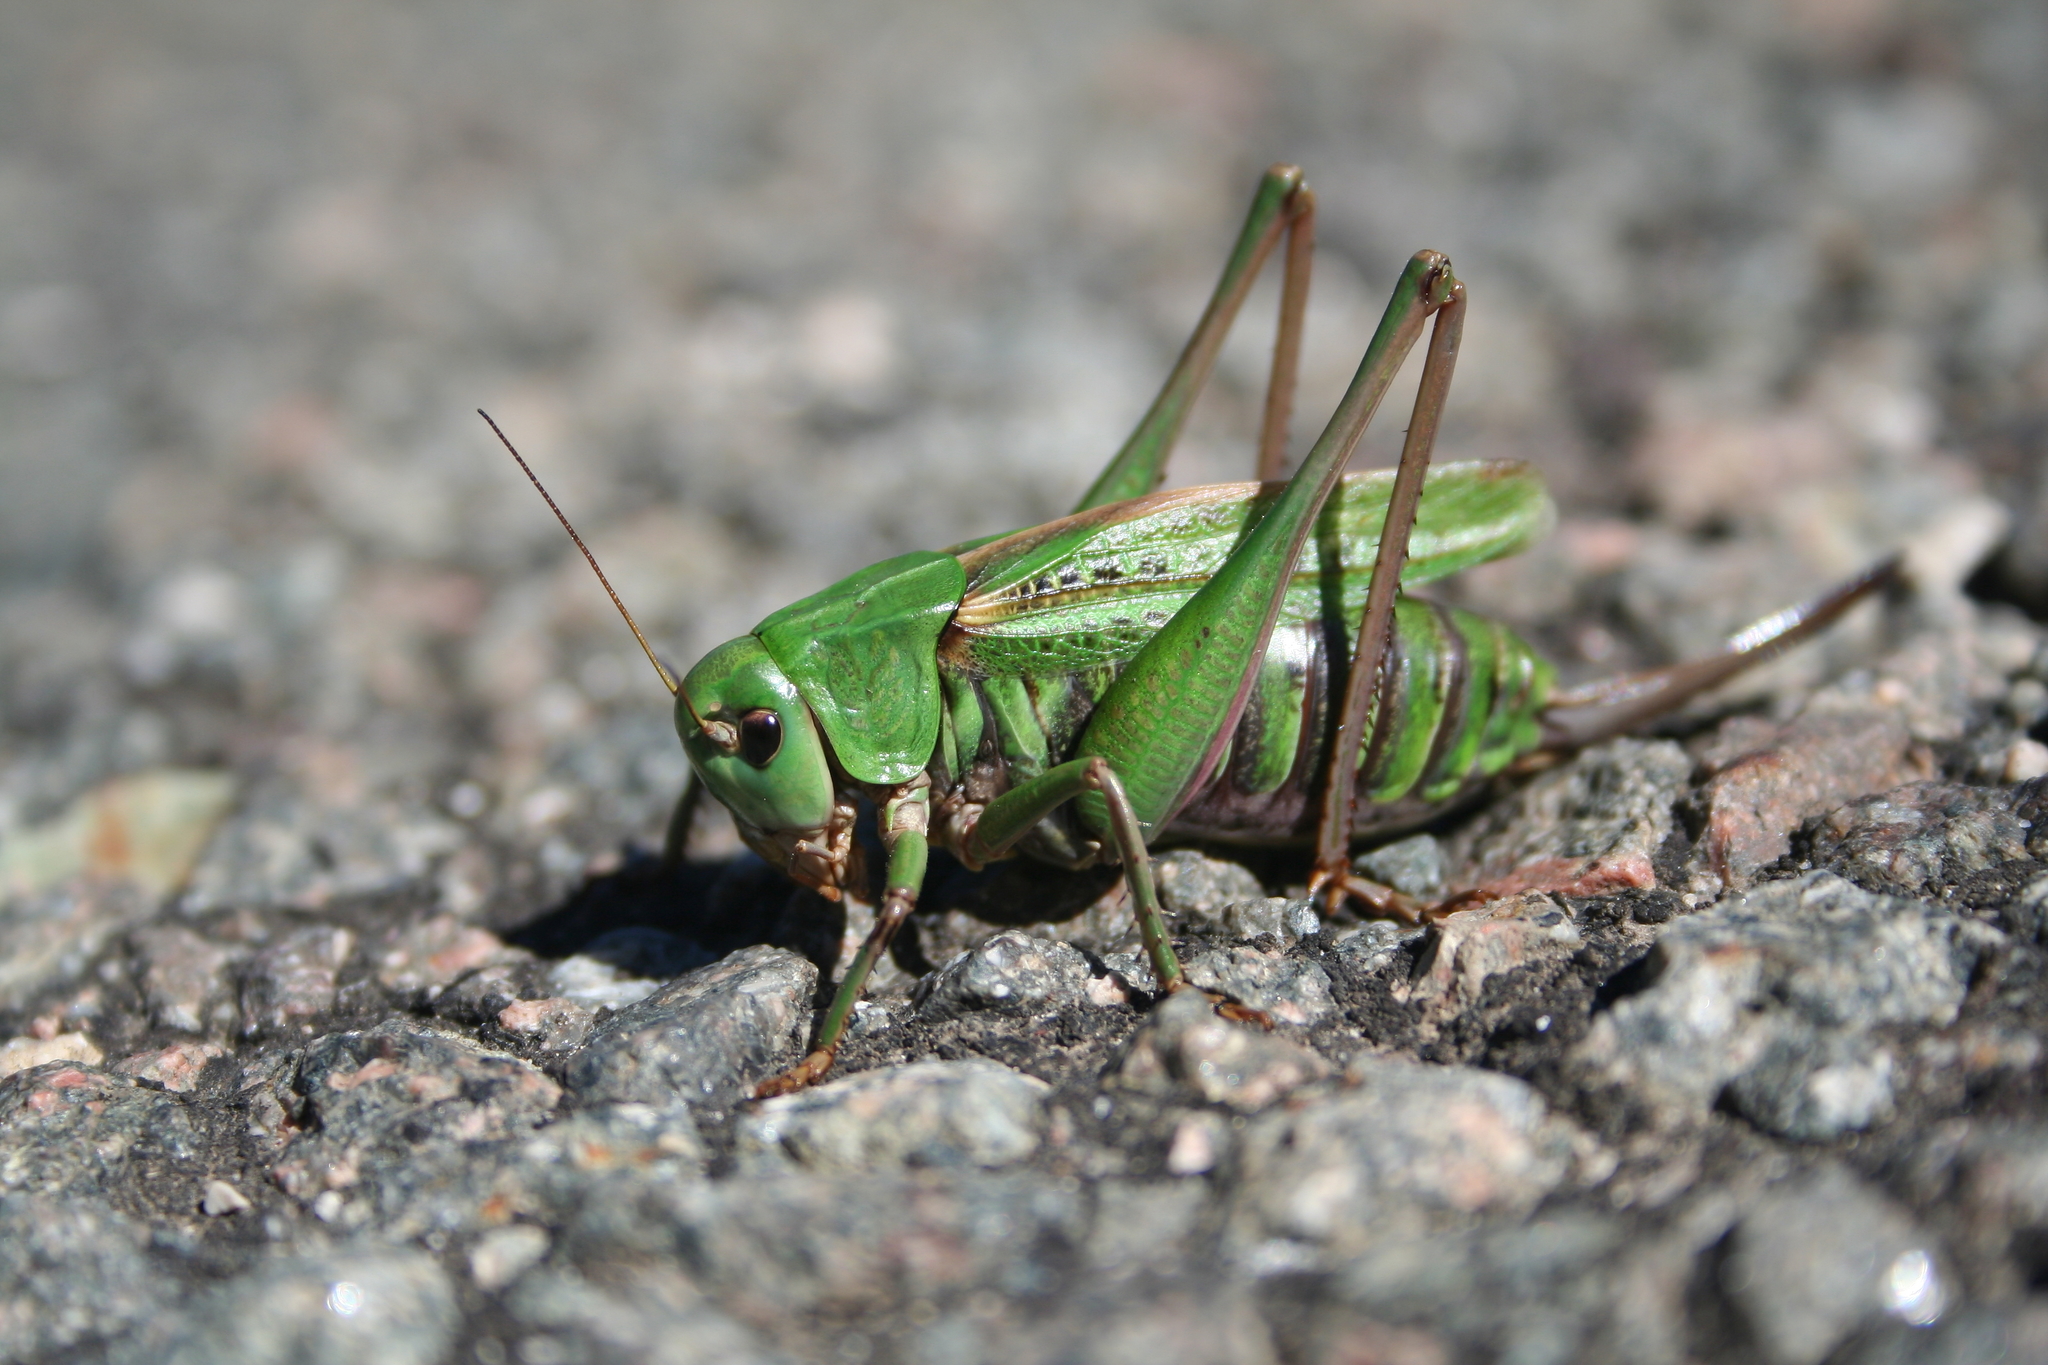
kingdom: Animalia
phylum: Arthropoda
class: Insecta
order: Orthoptera
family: Tettigoniidae
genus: Decticus
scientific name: Decticus verrucivorus
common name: Wart-biter
